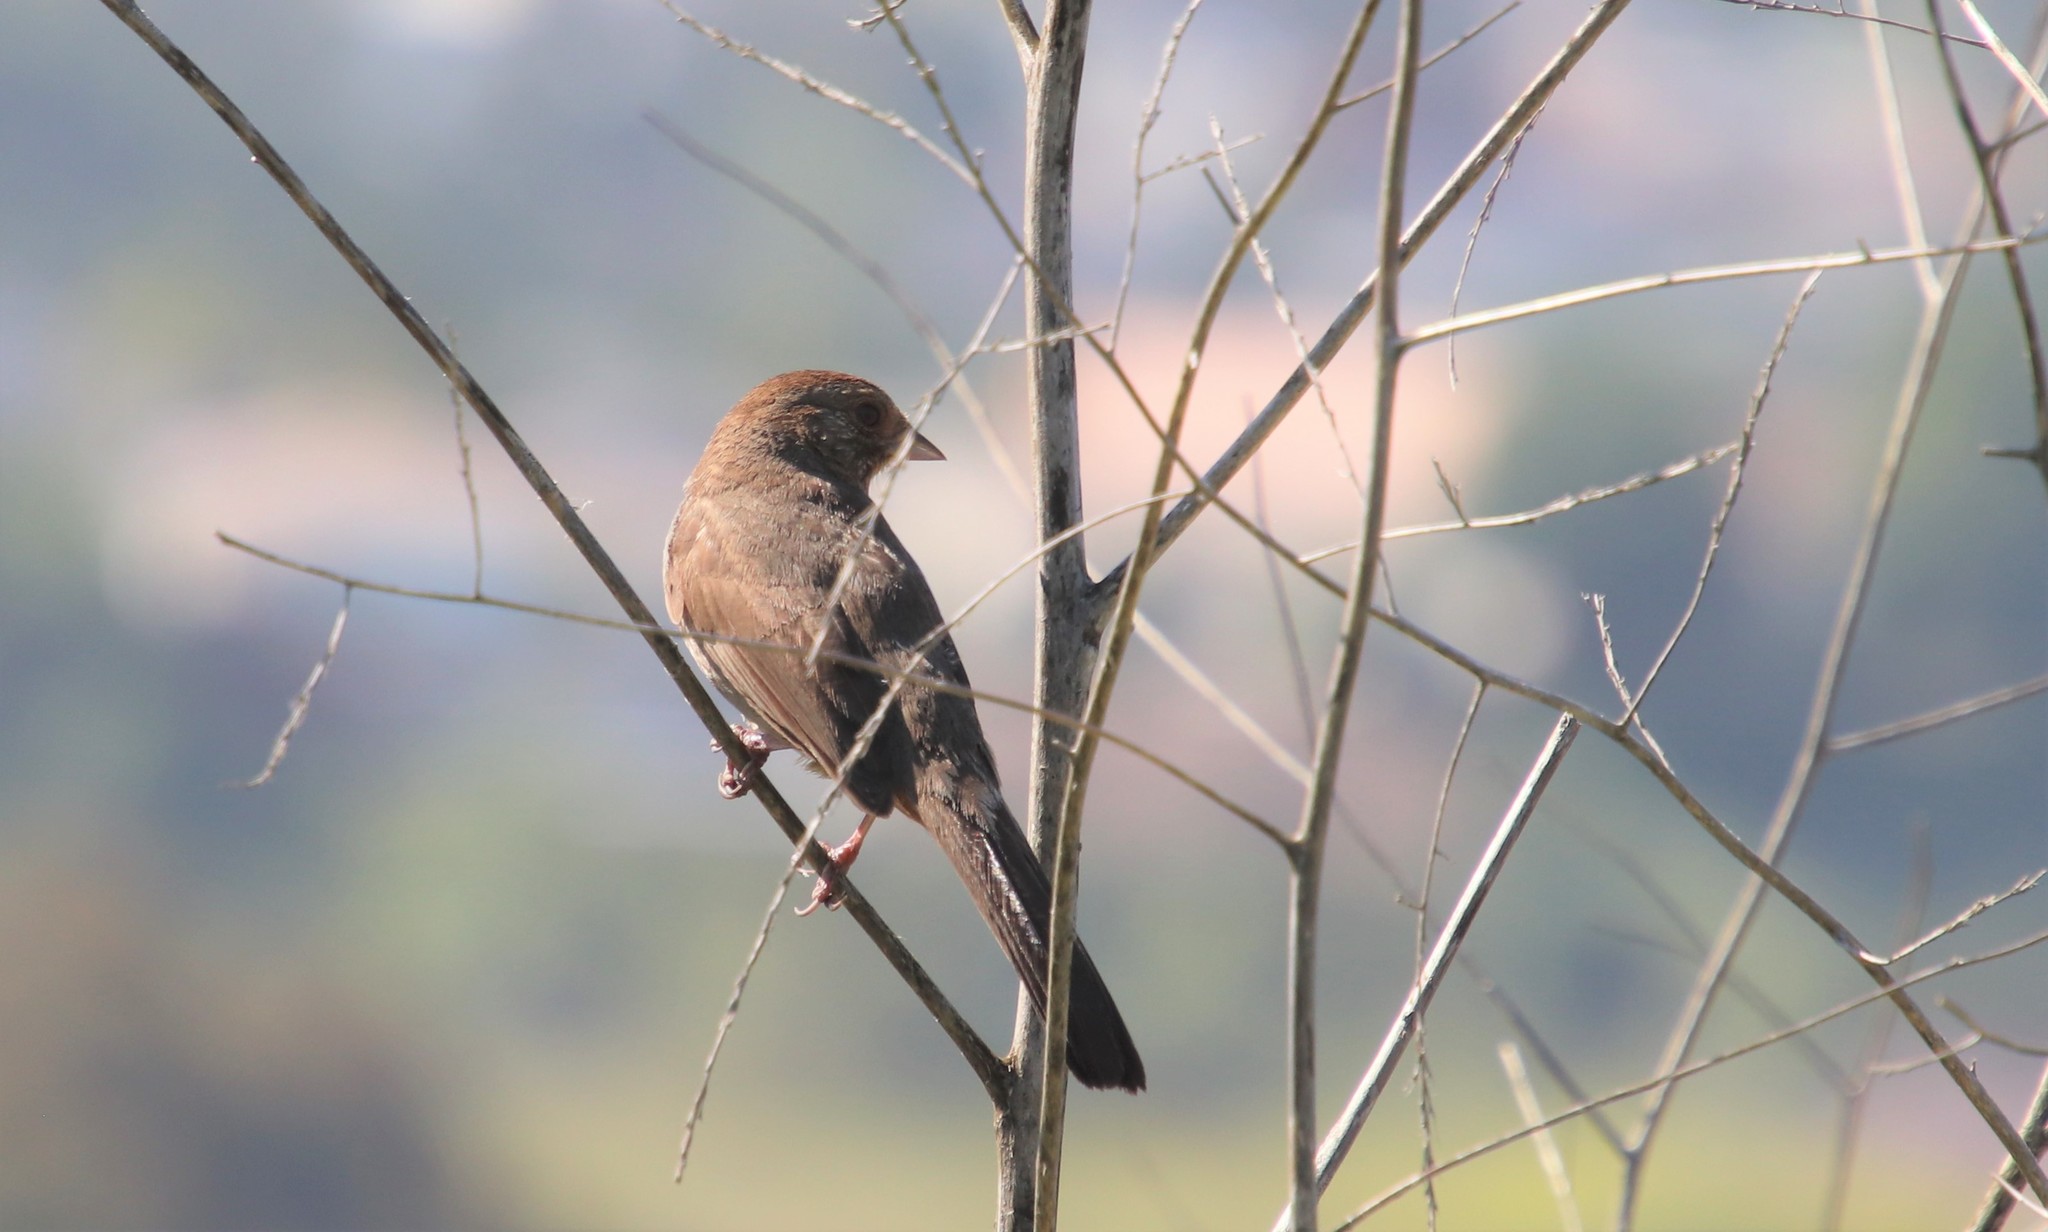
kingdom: Animalia
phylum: Chordata
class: Aves
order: Passeriformes
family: Passerellidae
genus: Melozone
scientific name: Melozone crissalis
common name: California towhee
